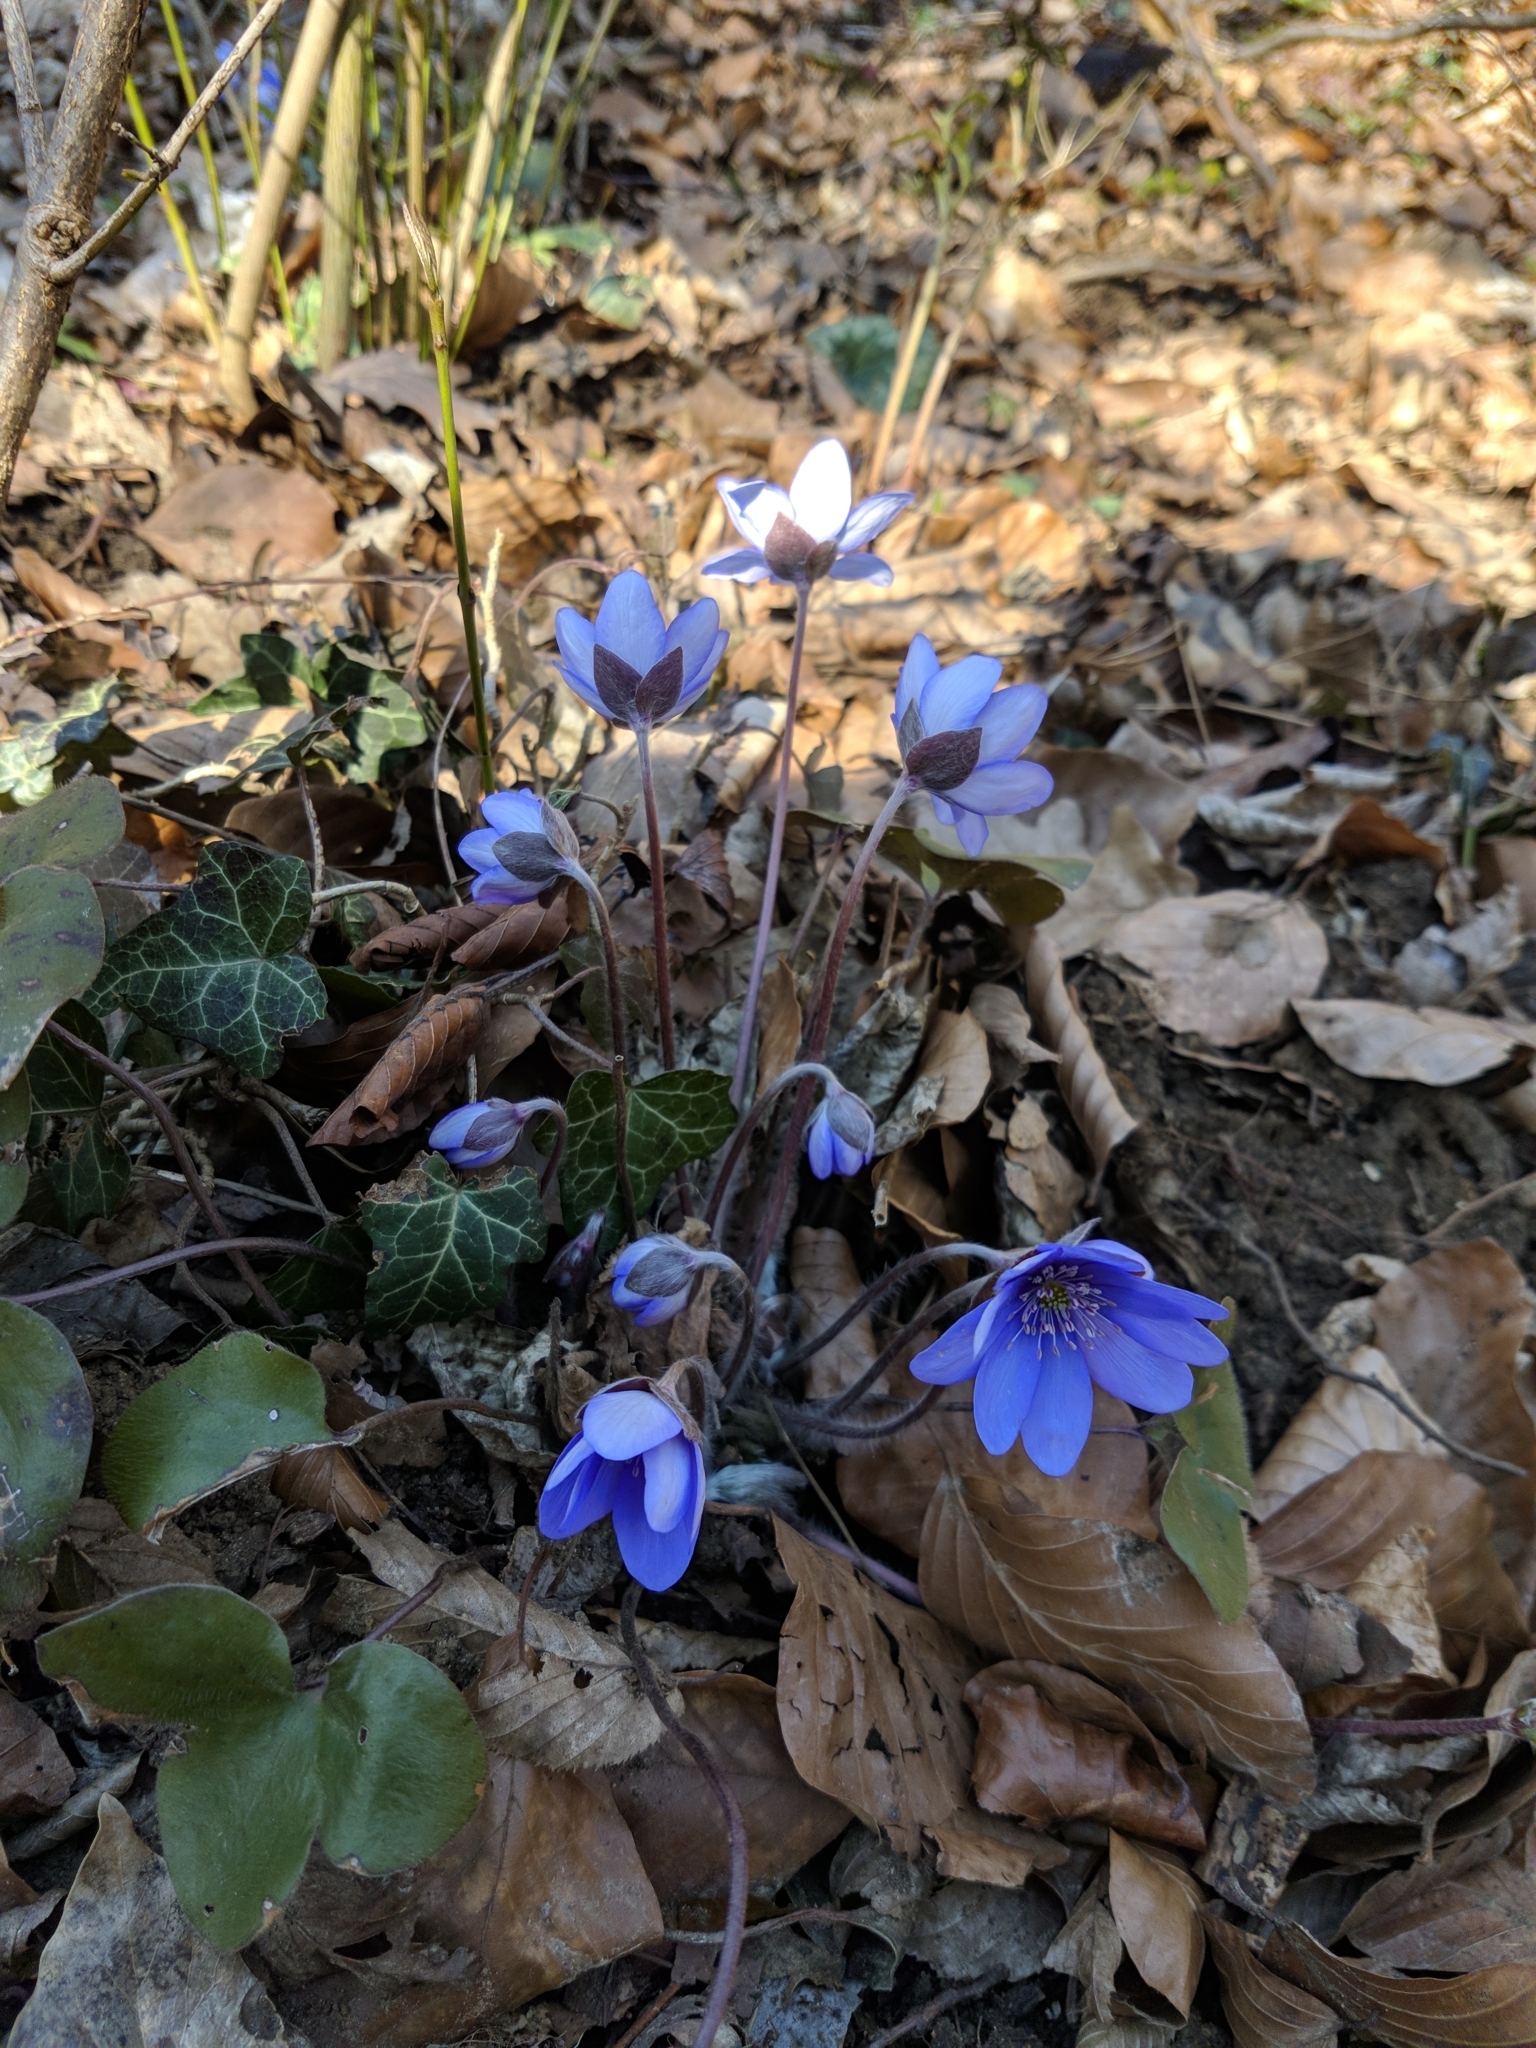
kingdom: Plantae
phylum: Tracheophyta
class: Magnoliopsida
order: Ranunculales
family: Ranunculaceae
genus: Hepatica
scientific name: Hepatica nobilis
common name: Liverleaf
